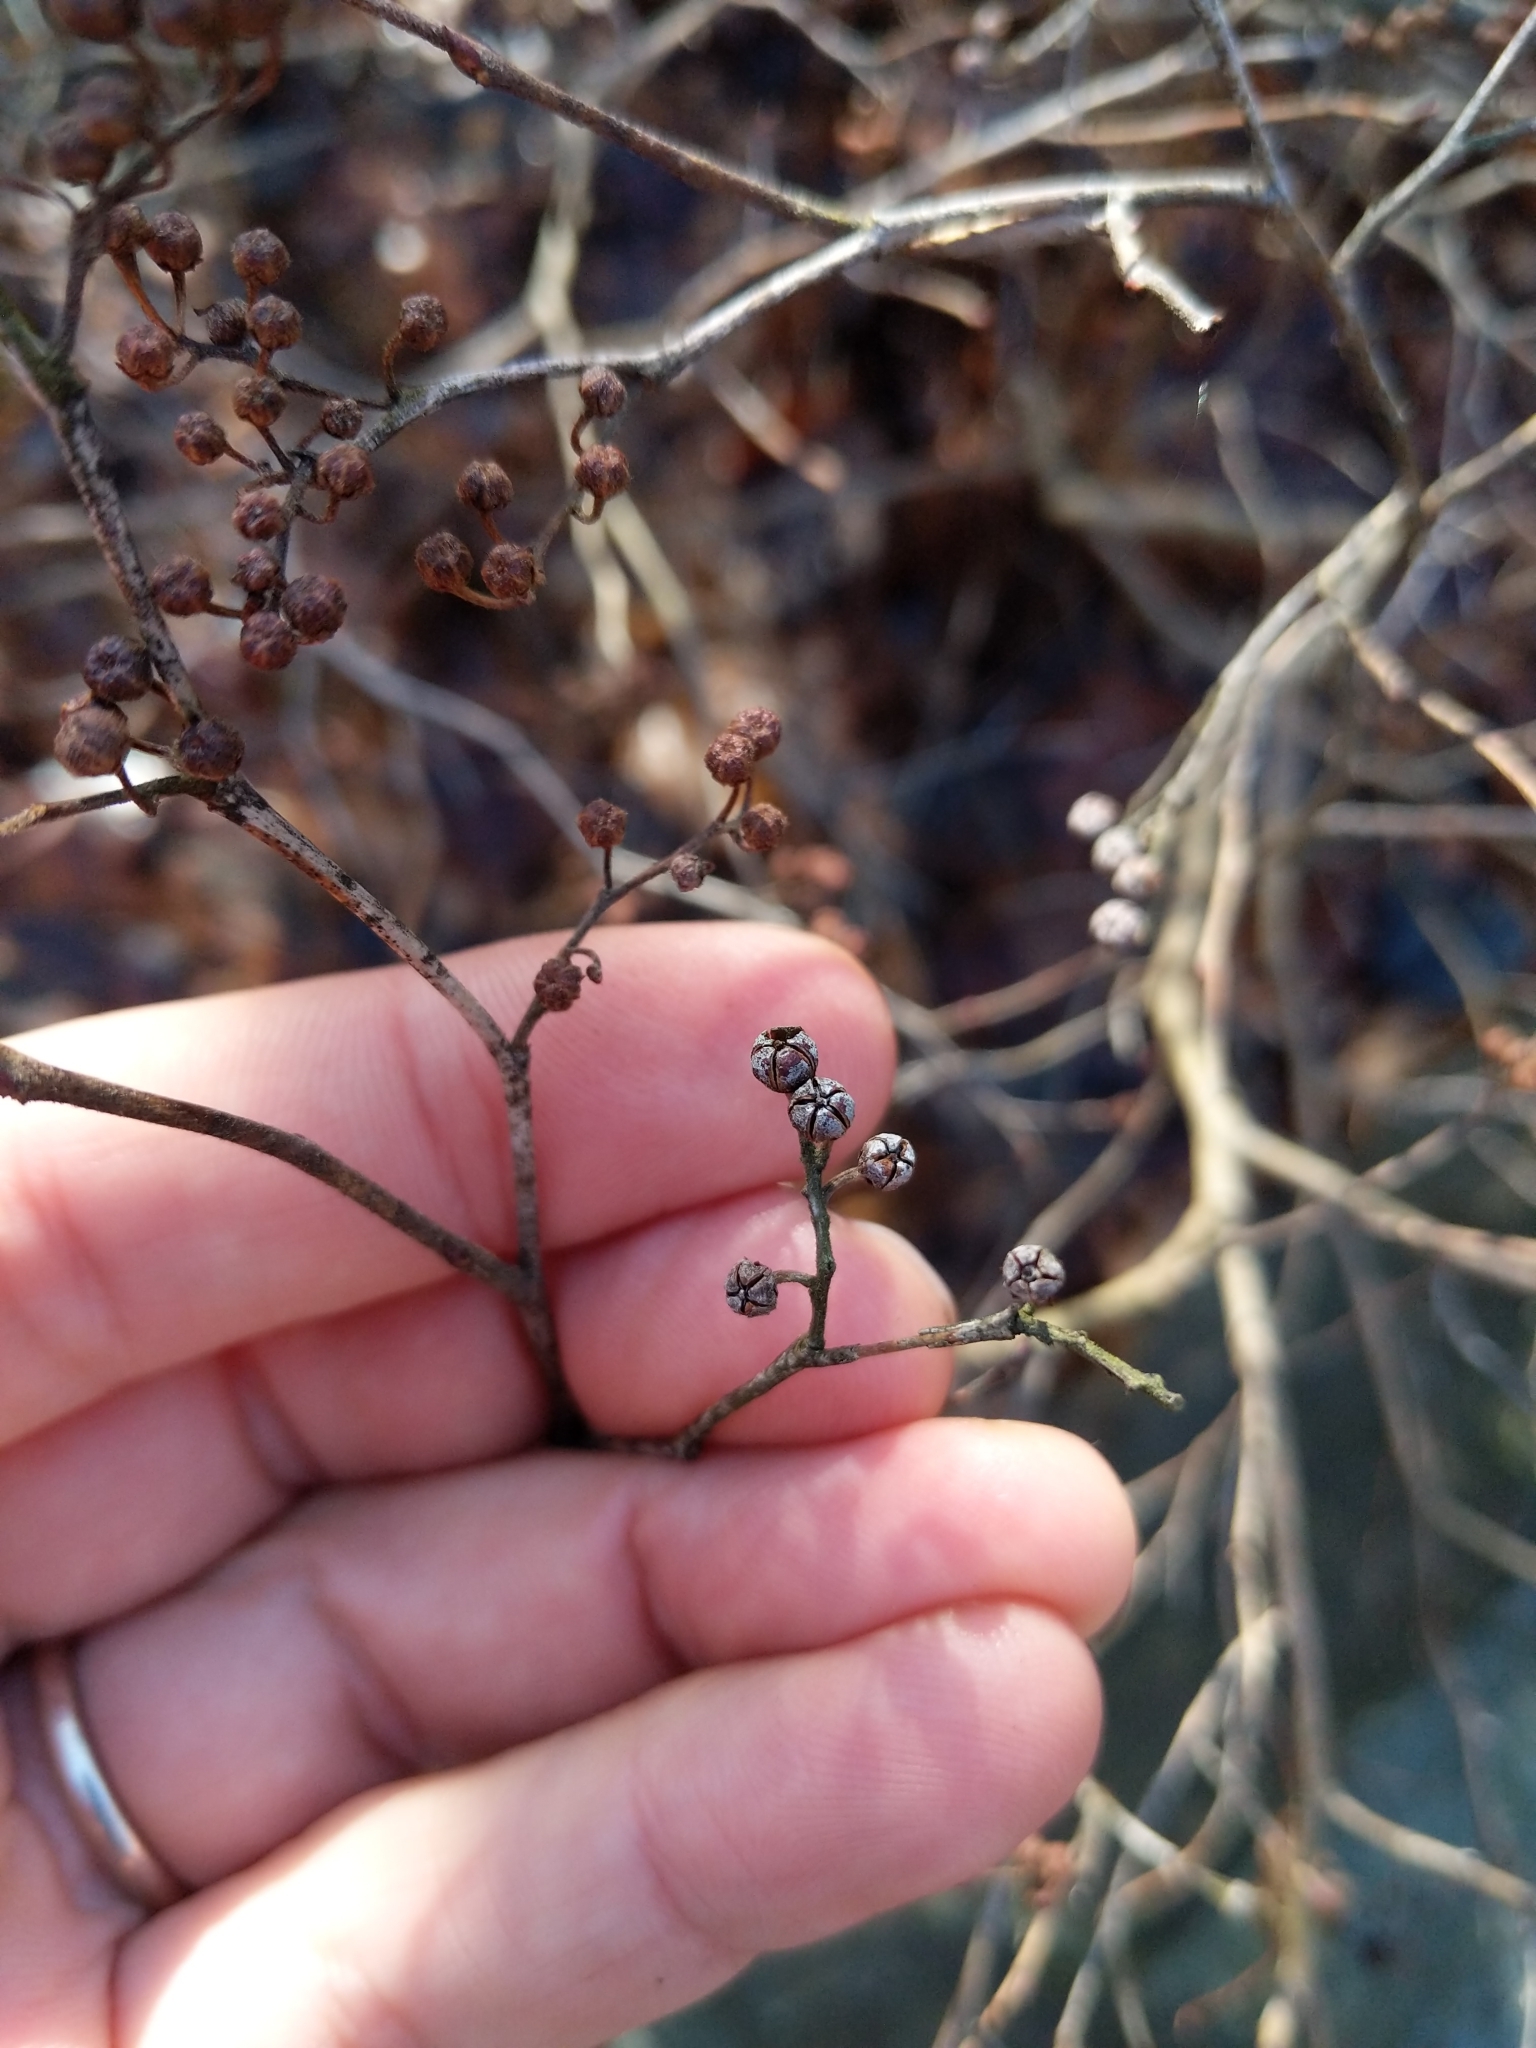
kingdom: Plantae
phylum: Tracheophyta
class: Magnoliopsida
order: Ericales
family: Ericaceae
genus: Lyonia
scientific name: Lyonia ligustrina
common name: Maleberry
